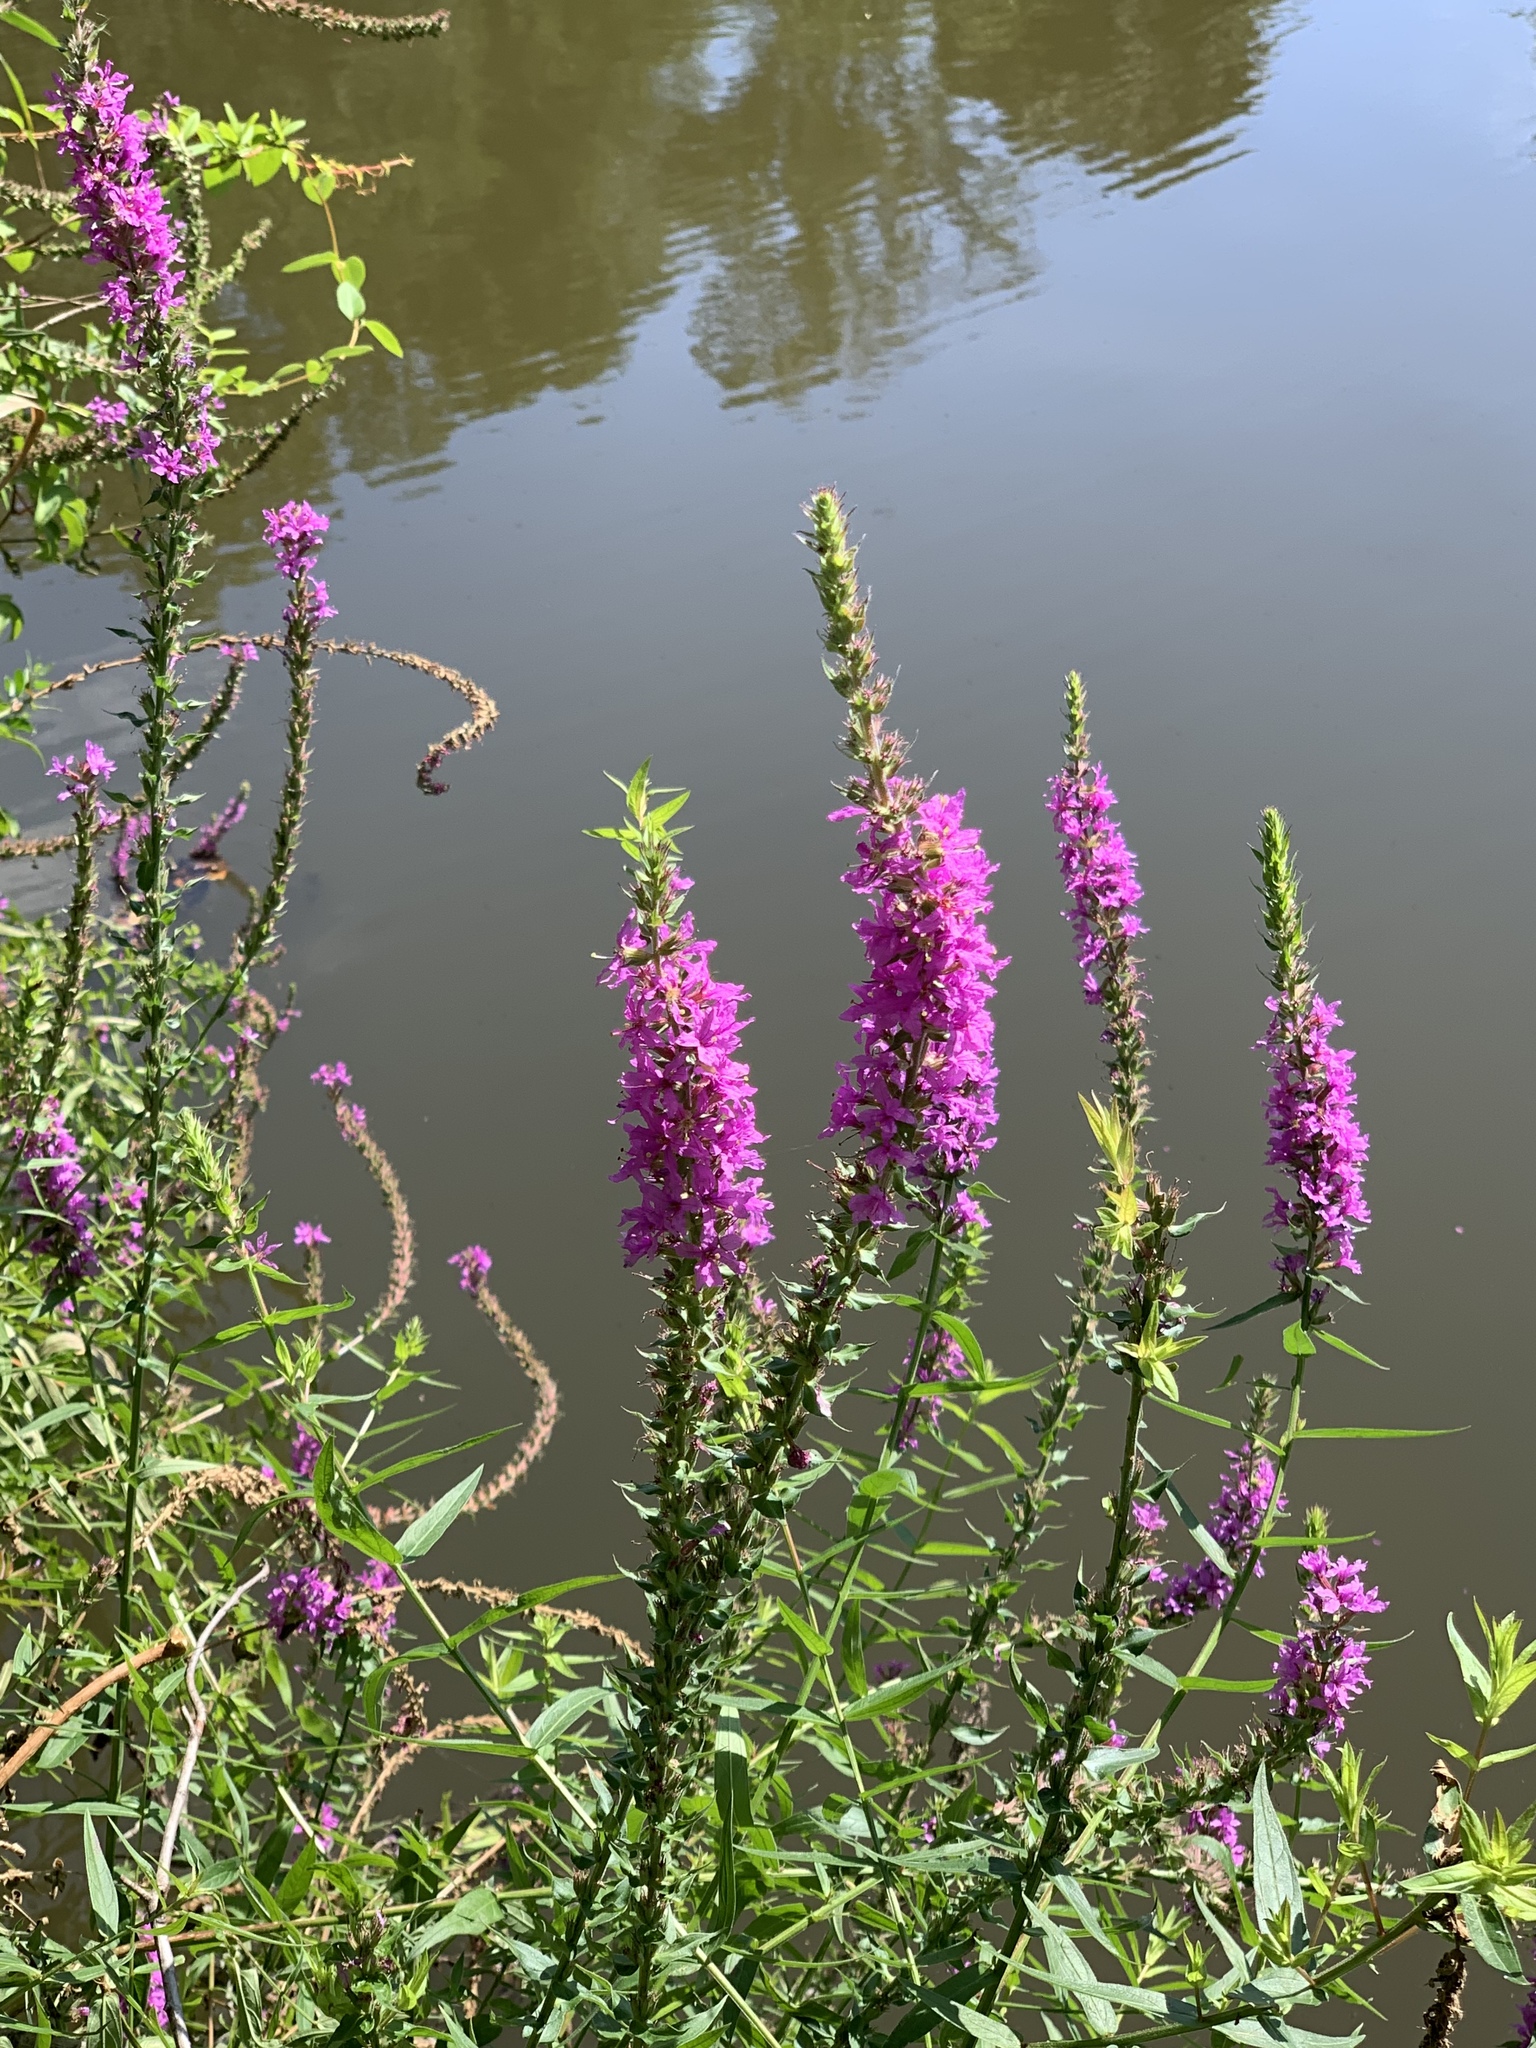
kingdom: Plantae
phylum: Tracheophyta
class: Magnoliopsida
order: Myrtales
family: Lythraceae
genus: Lythrum
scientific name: Lythrum salicaria
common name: Purple loosestrife
